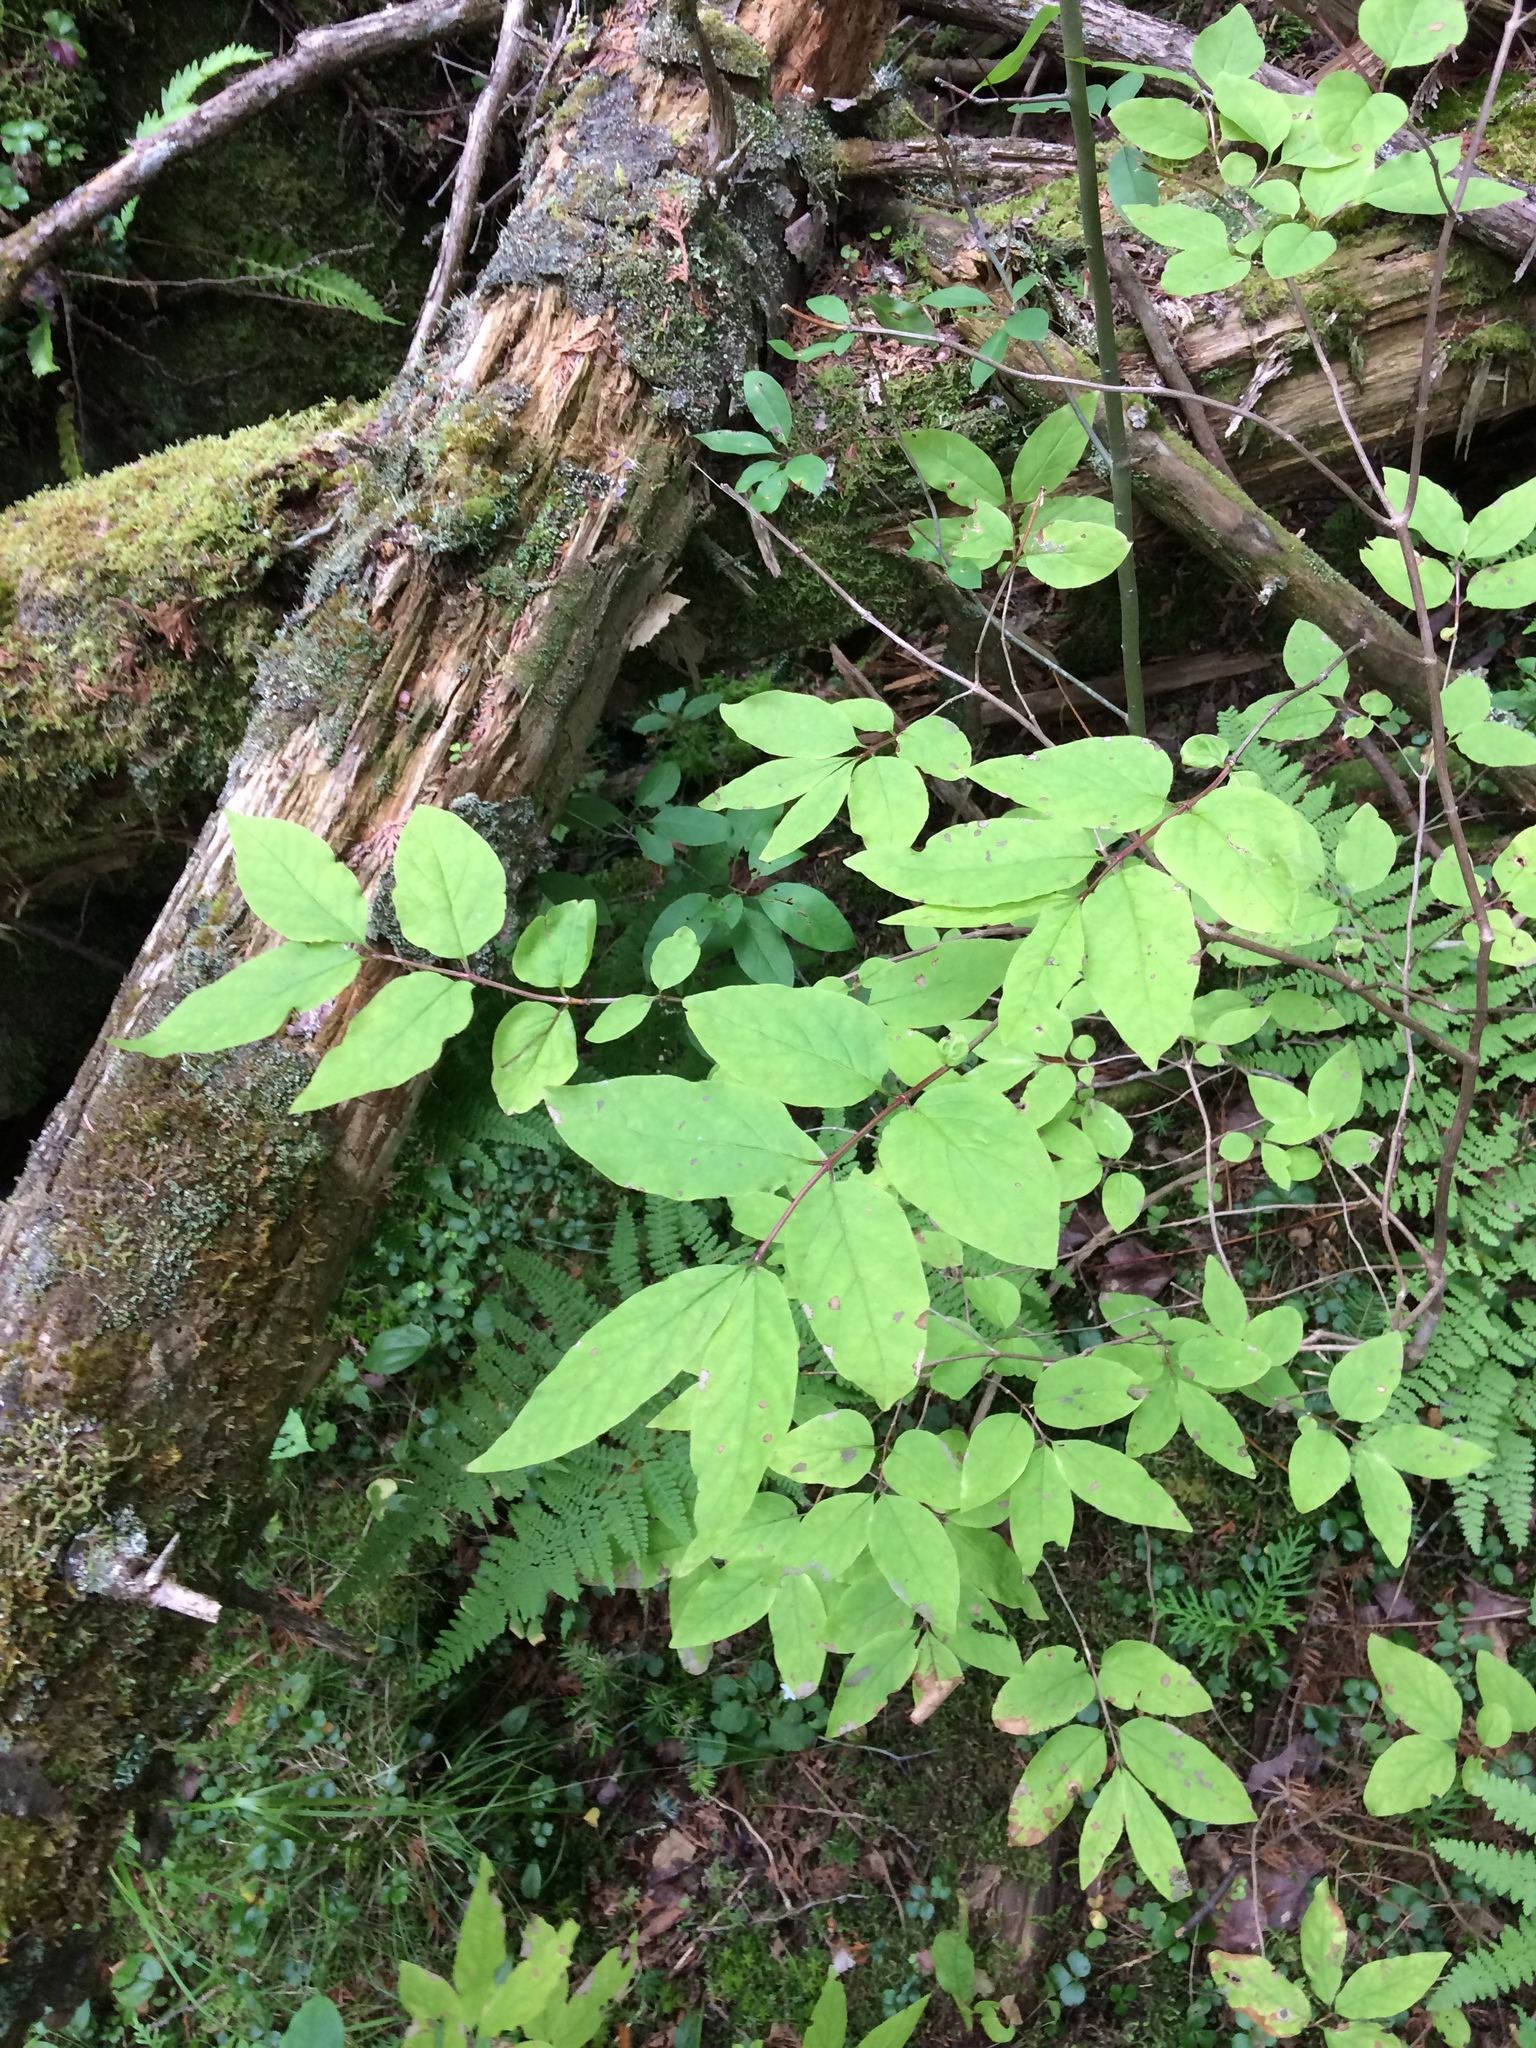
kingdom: Plantae
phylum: Tracheophyta
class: Magnoliopsida
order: Dipsacales
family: Caprifoliaceae
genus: Lonicera
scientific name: Lonicera canadensis
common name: American fly-honeysuckle
